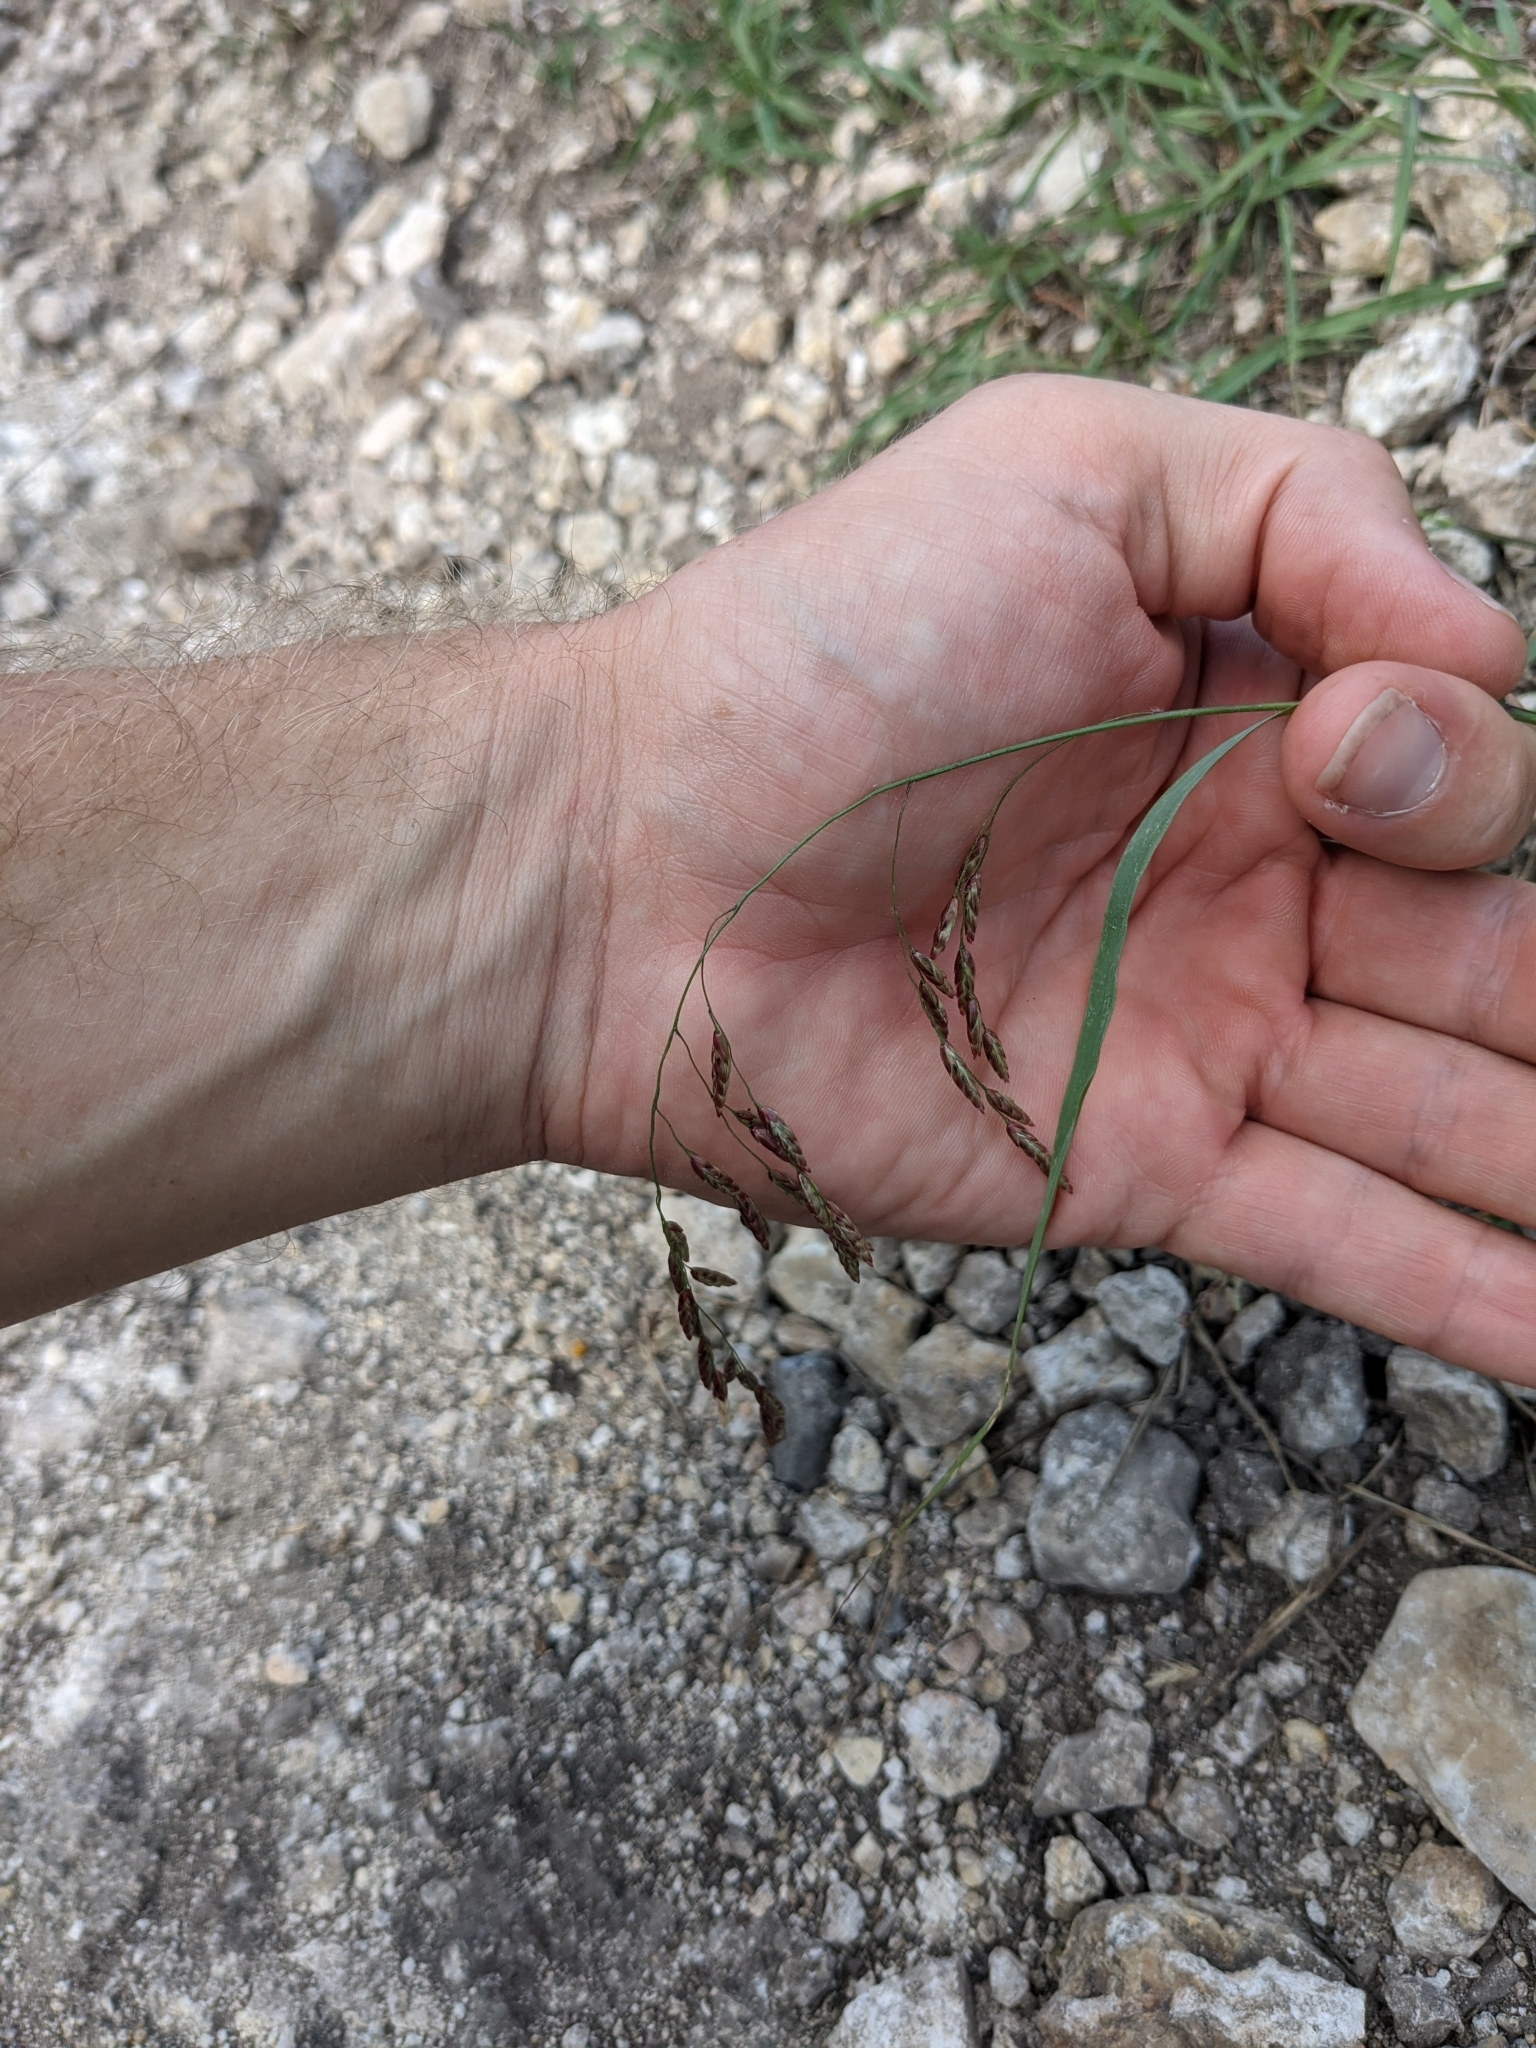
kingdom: Plantae
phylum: Tracheophyta
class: Liliopsida
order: Poales
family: Poaceae
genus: Tridens
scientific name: Tridens texanus
